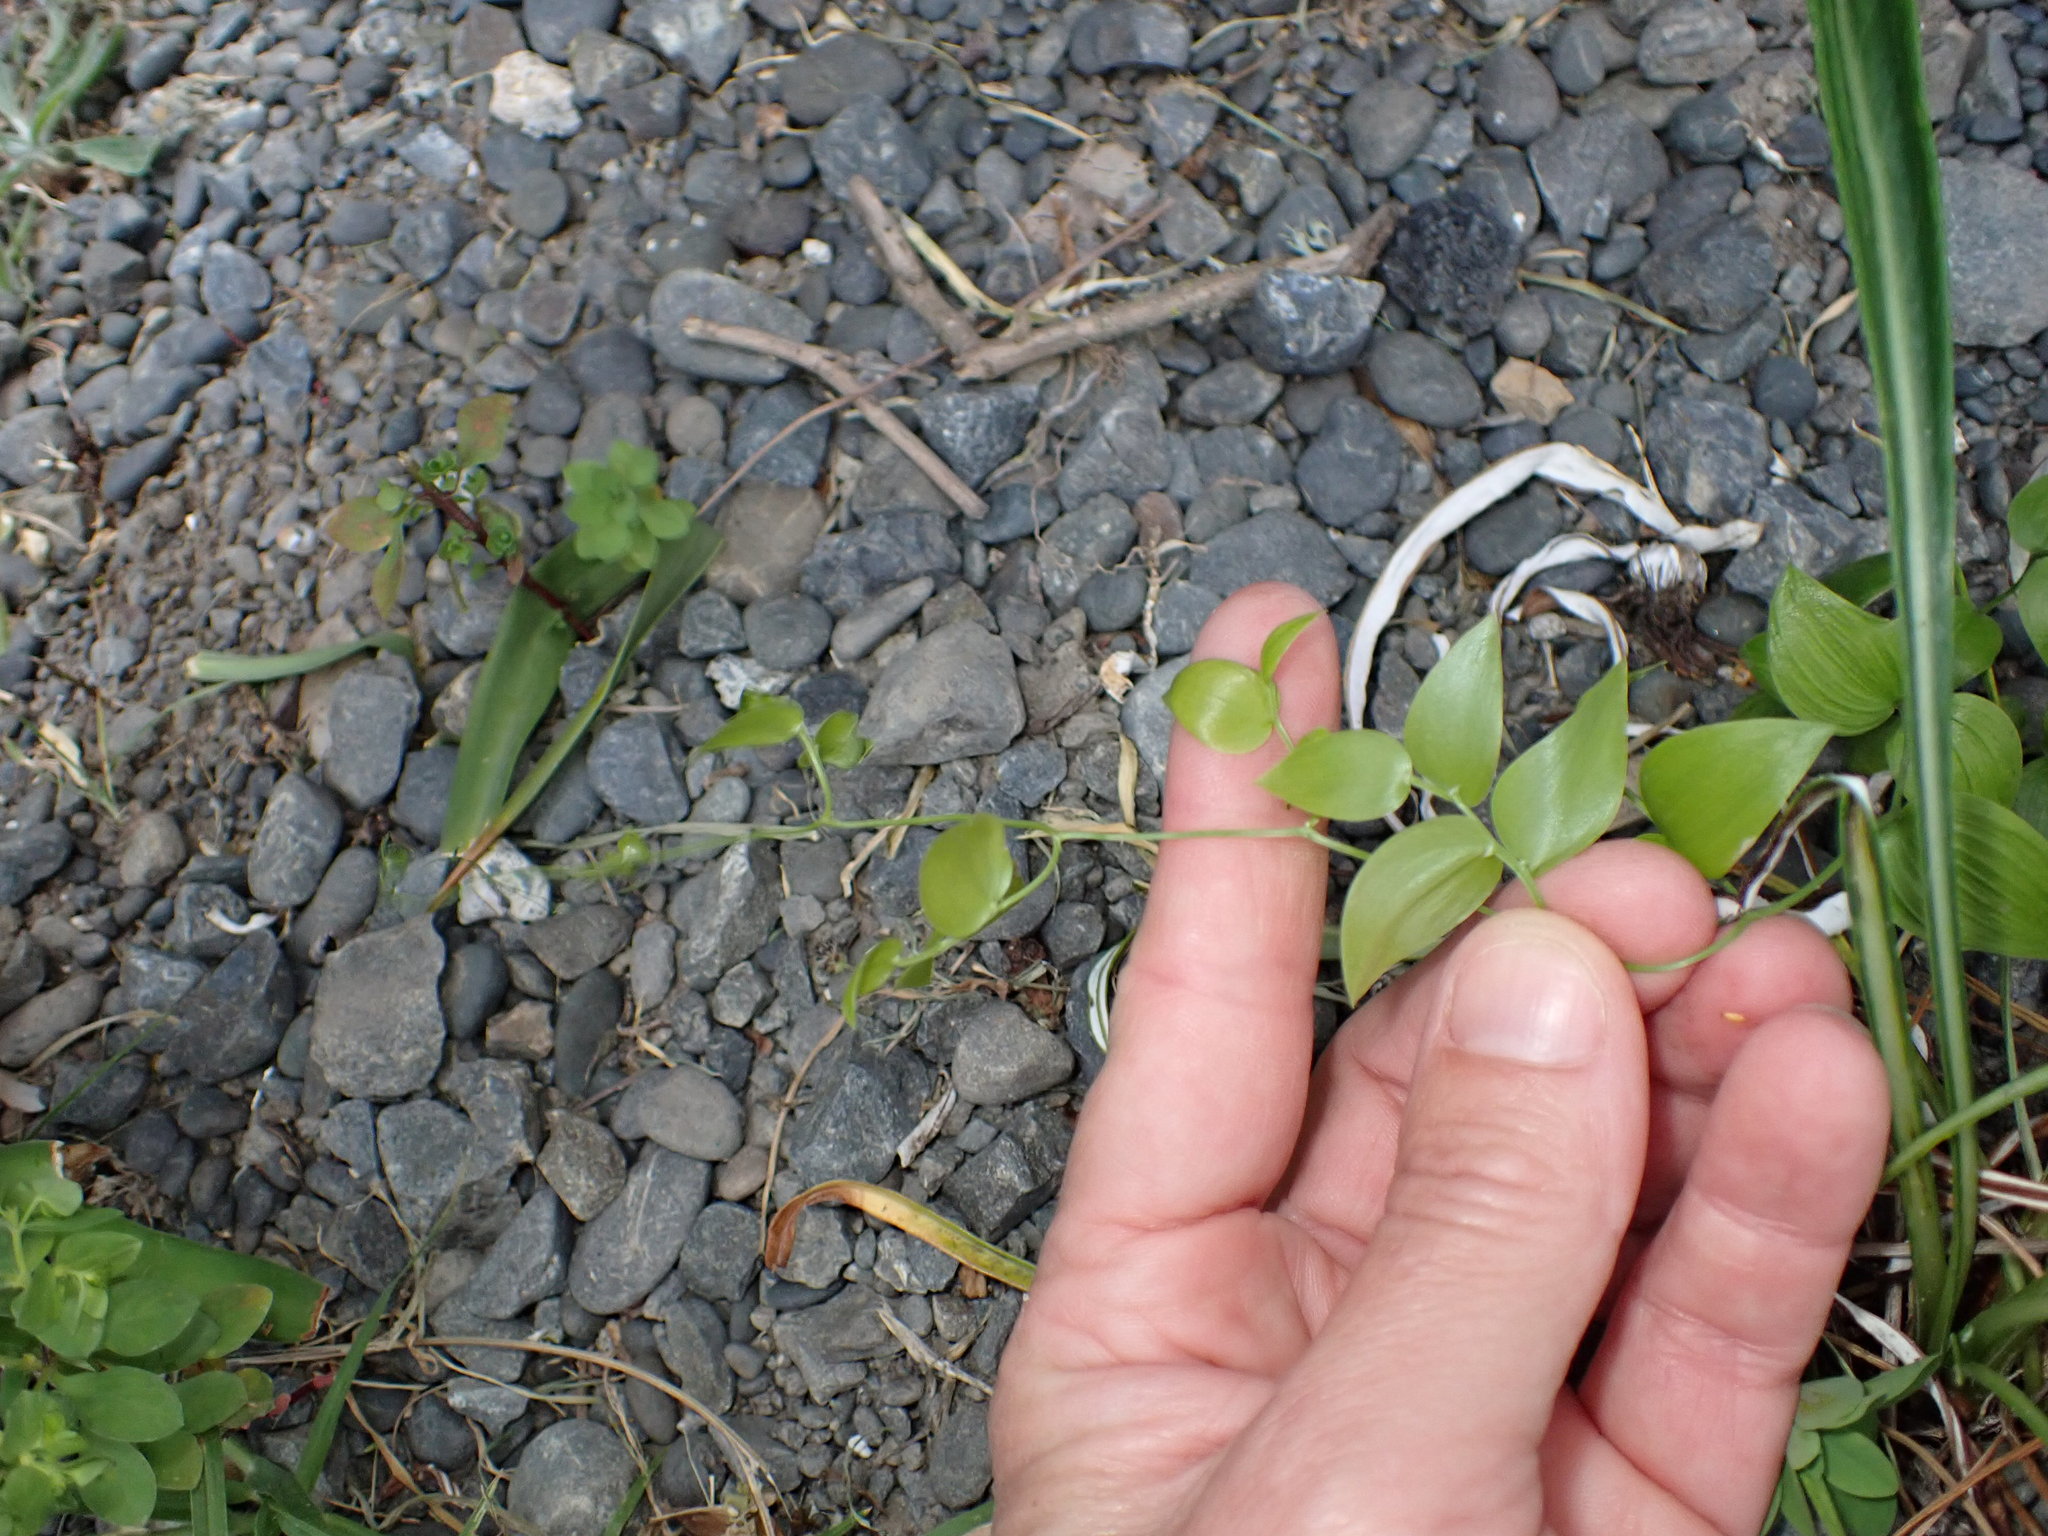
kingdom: Plantae
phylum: Tracheophyta
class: Liliopsida
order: Asparagales
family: Asparagaceae
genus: Asparagus
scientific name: Asparagus asparagoides
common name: African asparagus fern
